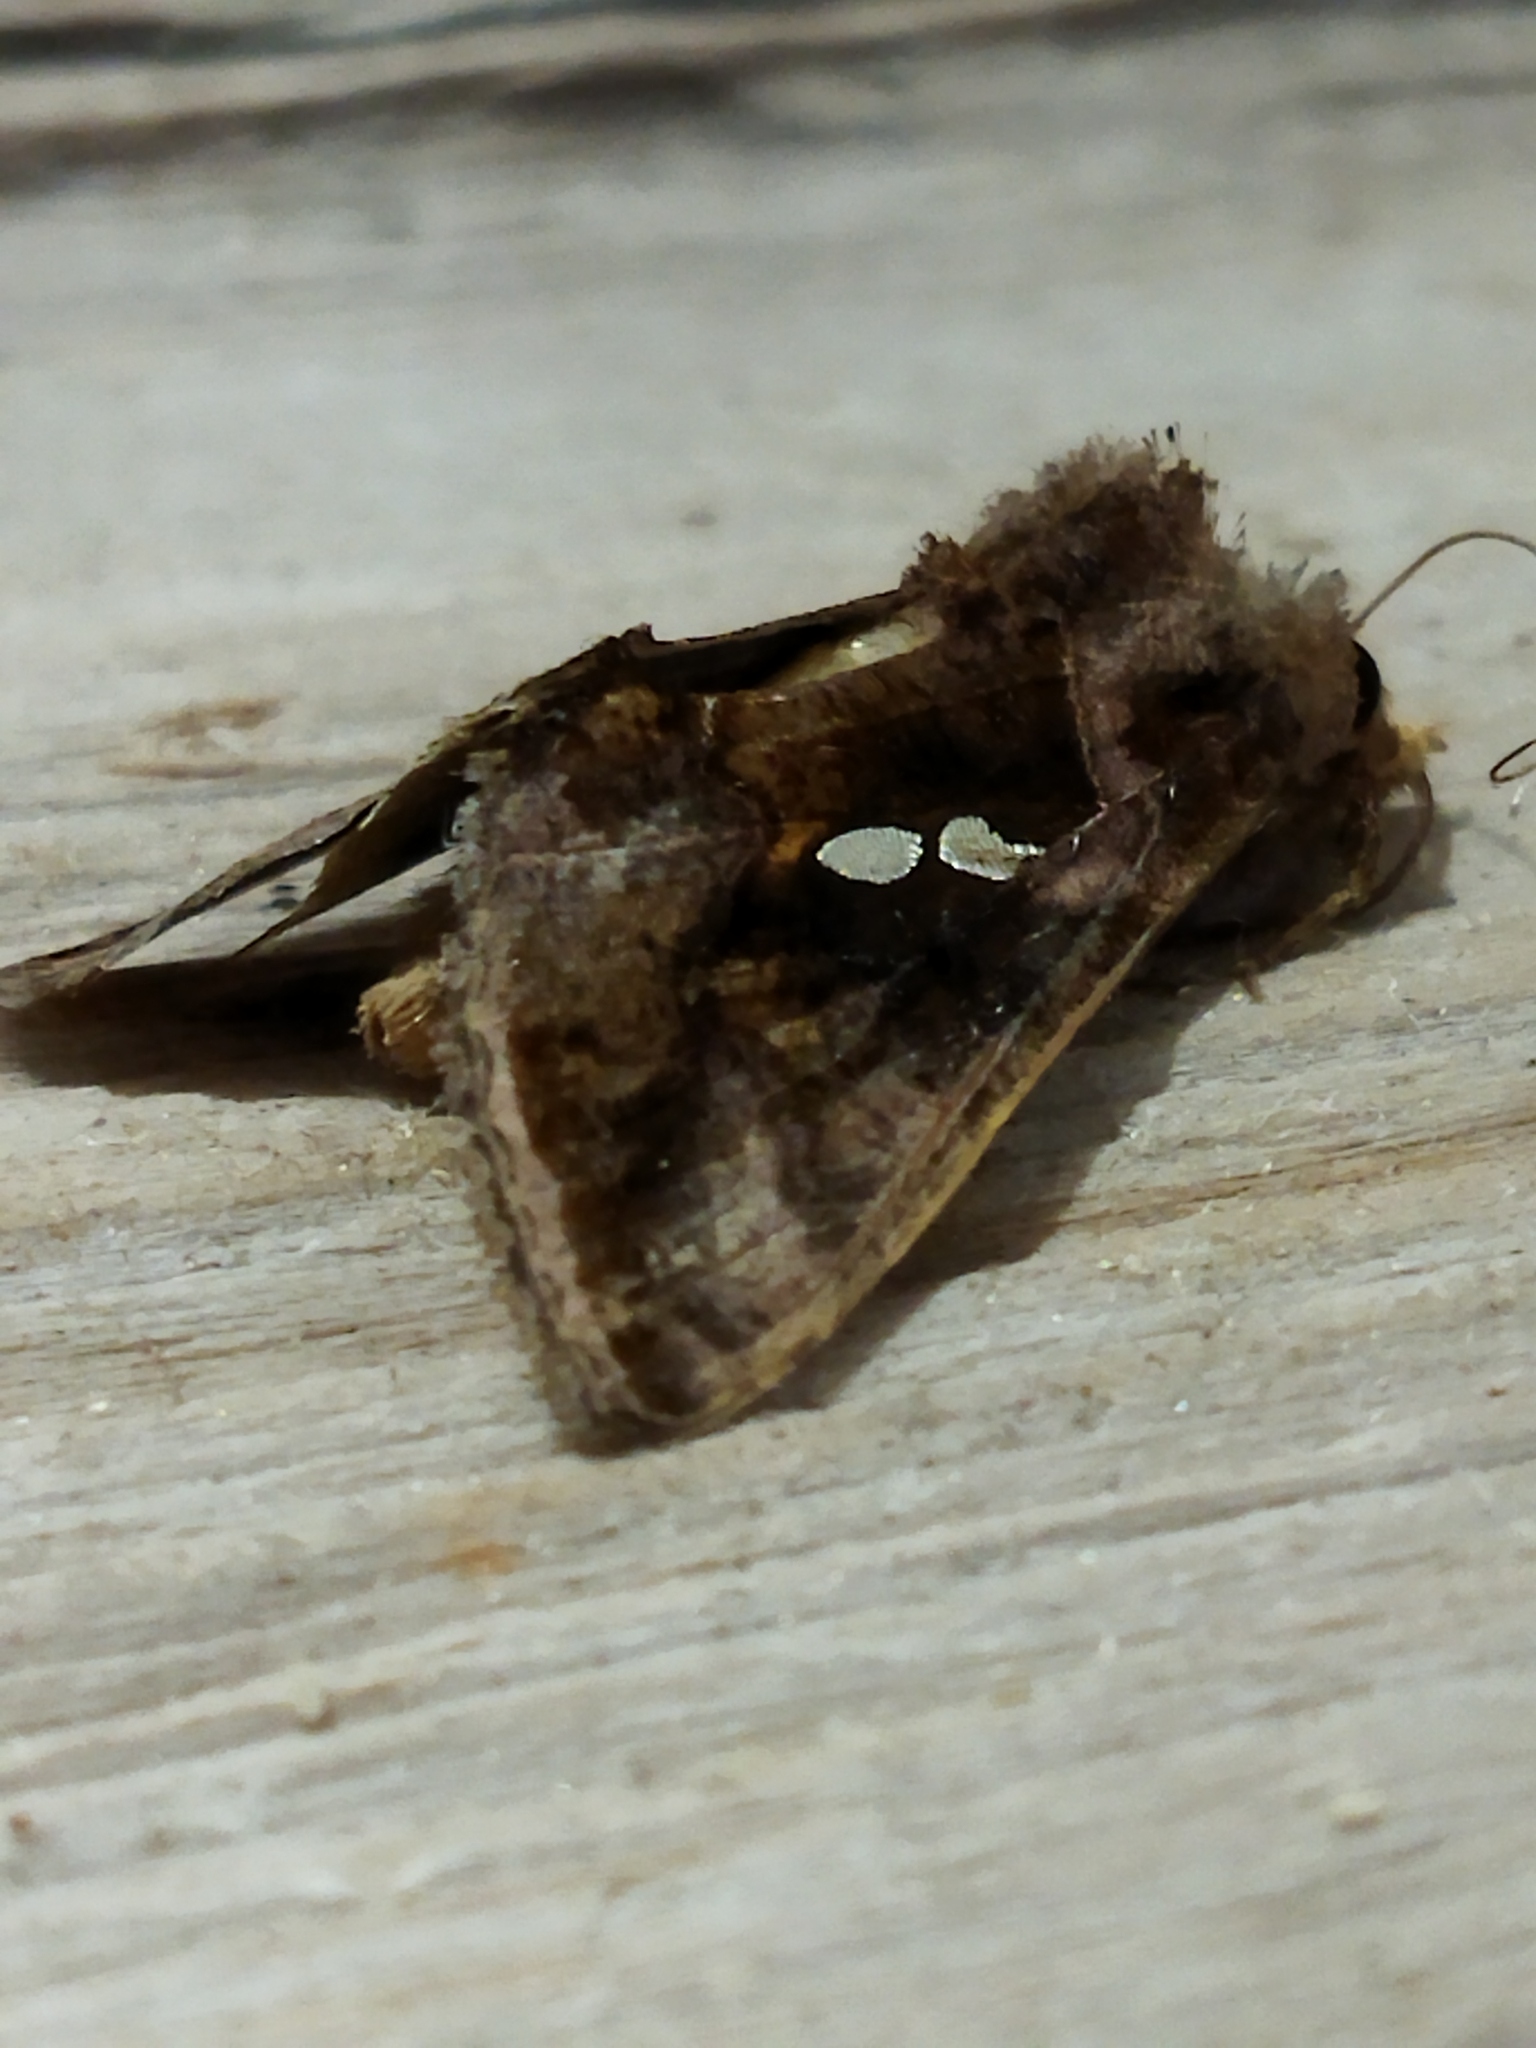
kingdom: Animalia
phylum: Arthropoda
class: Insecta
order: Lepidoptera
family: Noctuidae
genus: Chrysodeixis
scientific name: Chrysodeixis chalcites
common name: Golden twin-spot
